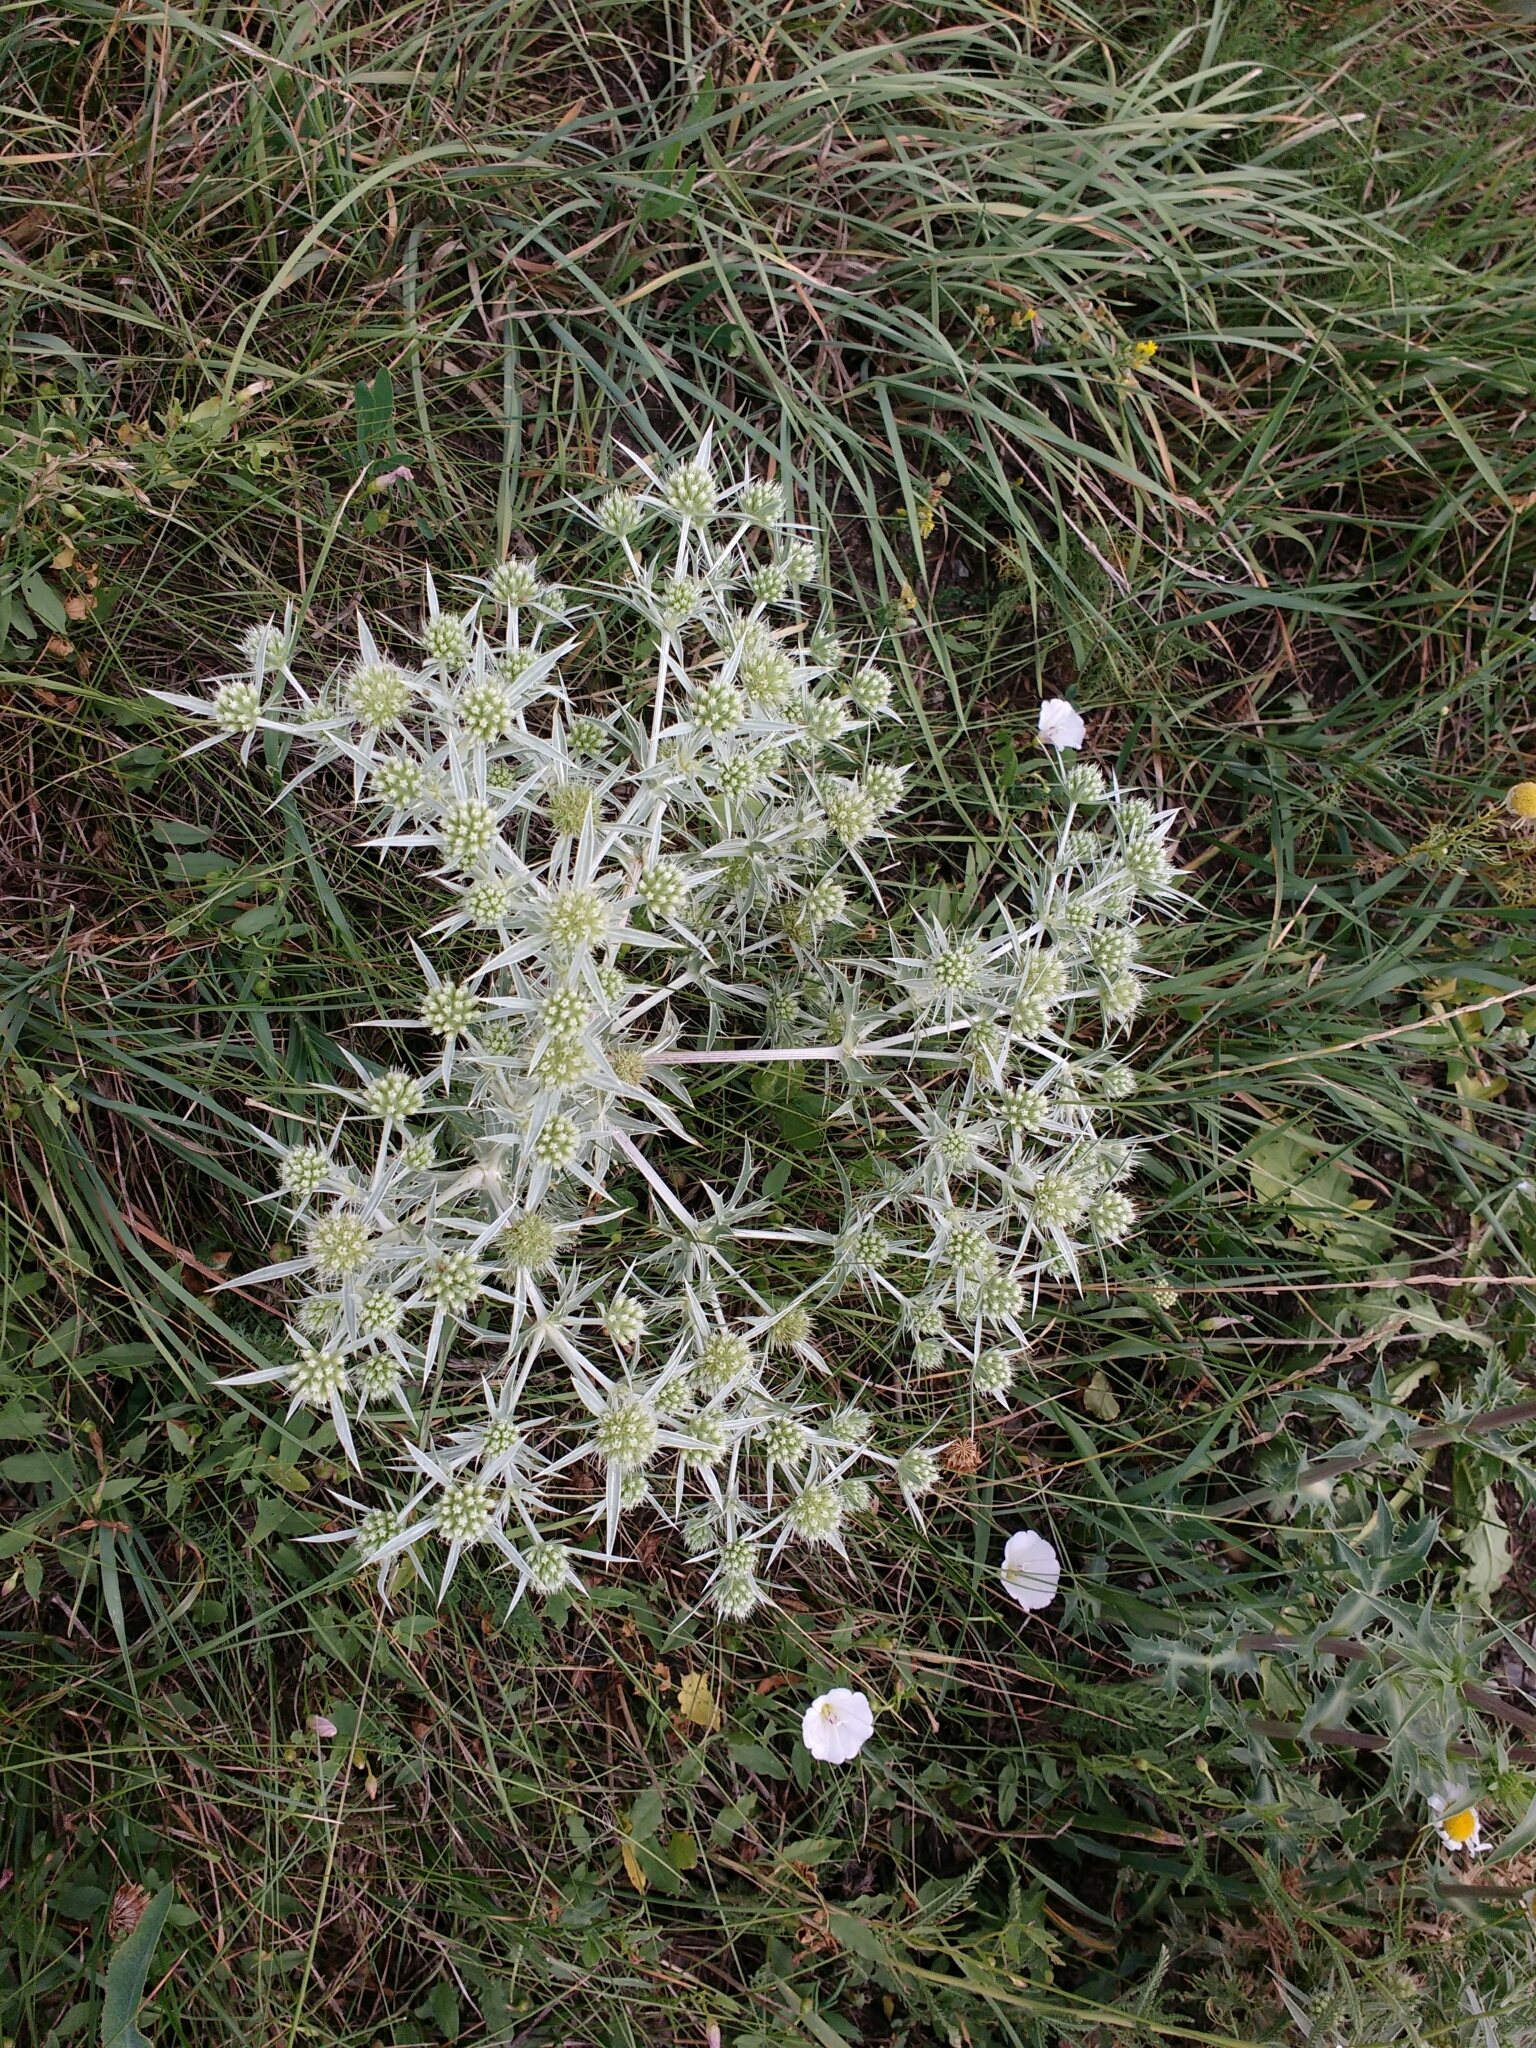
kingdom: Plantae
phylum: Tracheophyta
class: Magnoliopsida
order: Apiales
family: Apiaceae
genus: Eryngium
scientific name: Eryngium campestre
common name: Field eryngo
